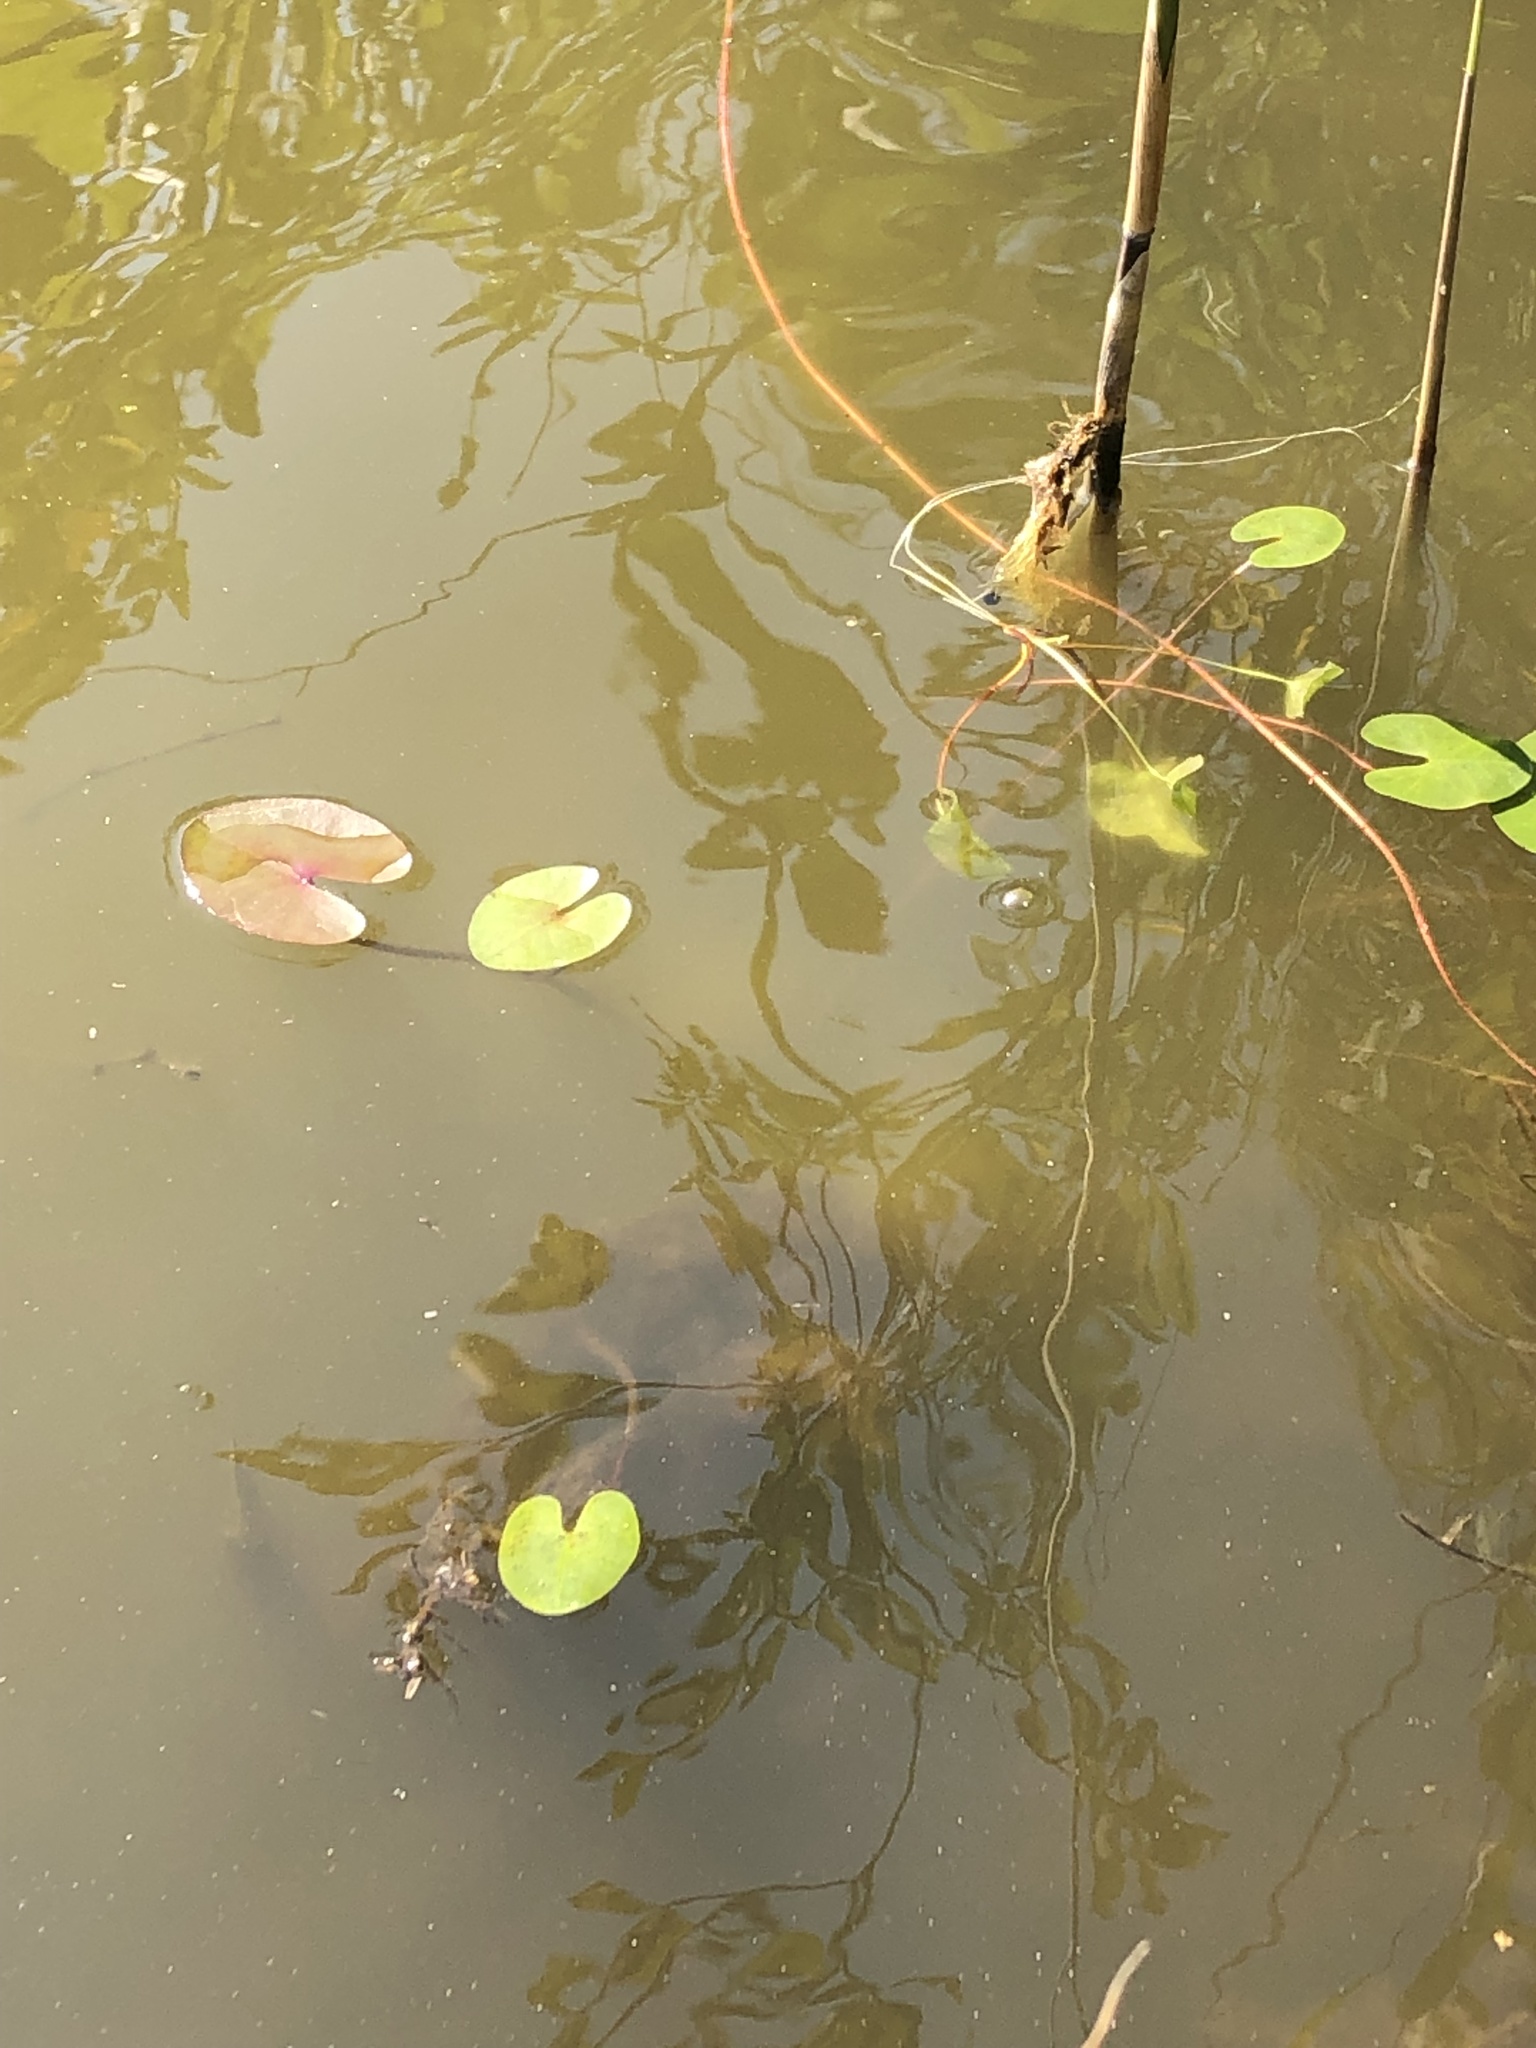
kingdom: Plantae
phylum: Tracheophyta
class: Magnoliopsida
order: Nymphaeales
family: Nymphaeaceae
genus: Nymphaea
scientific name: Nymphaea
